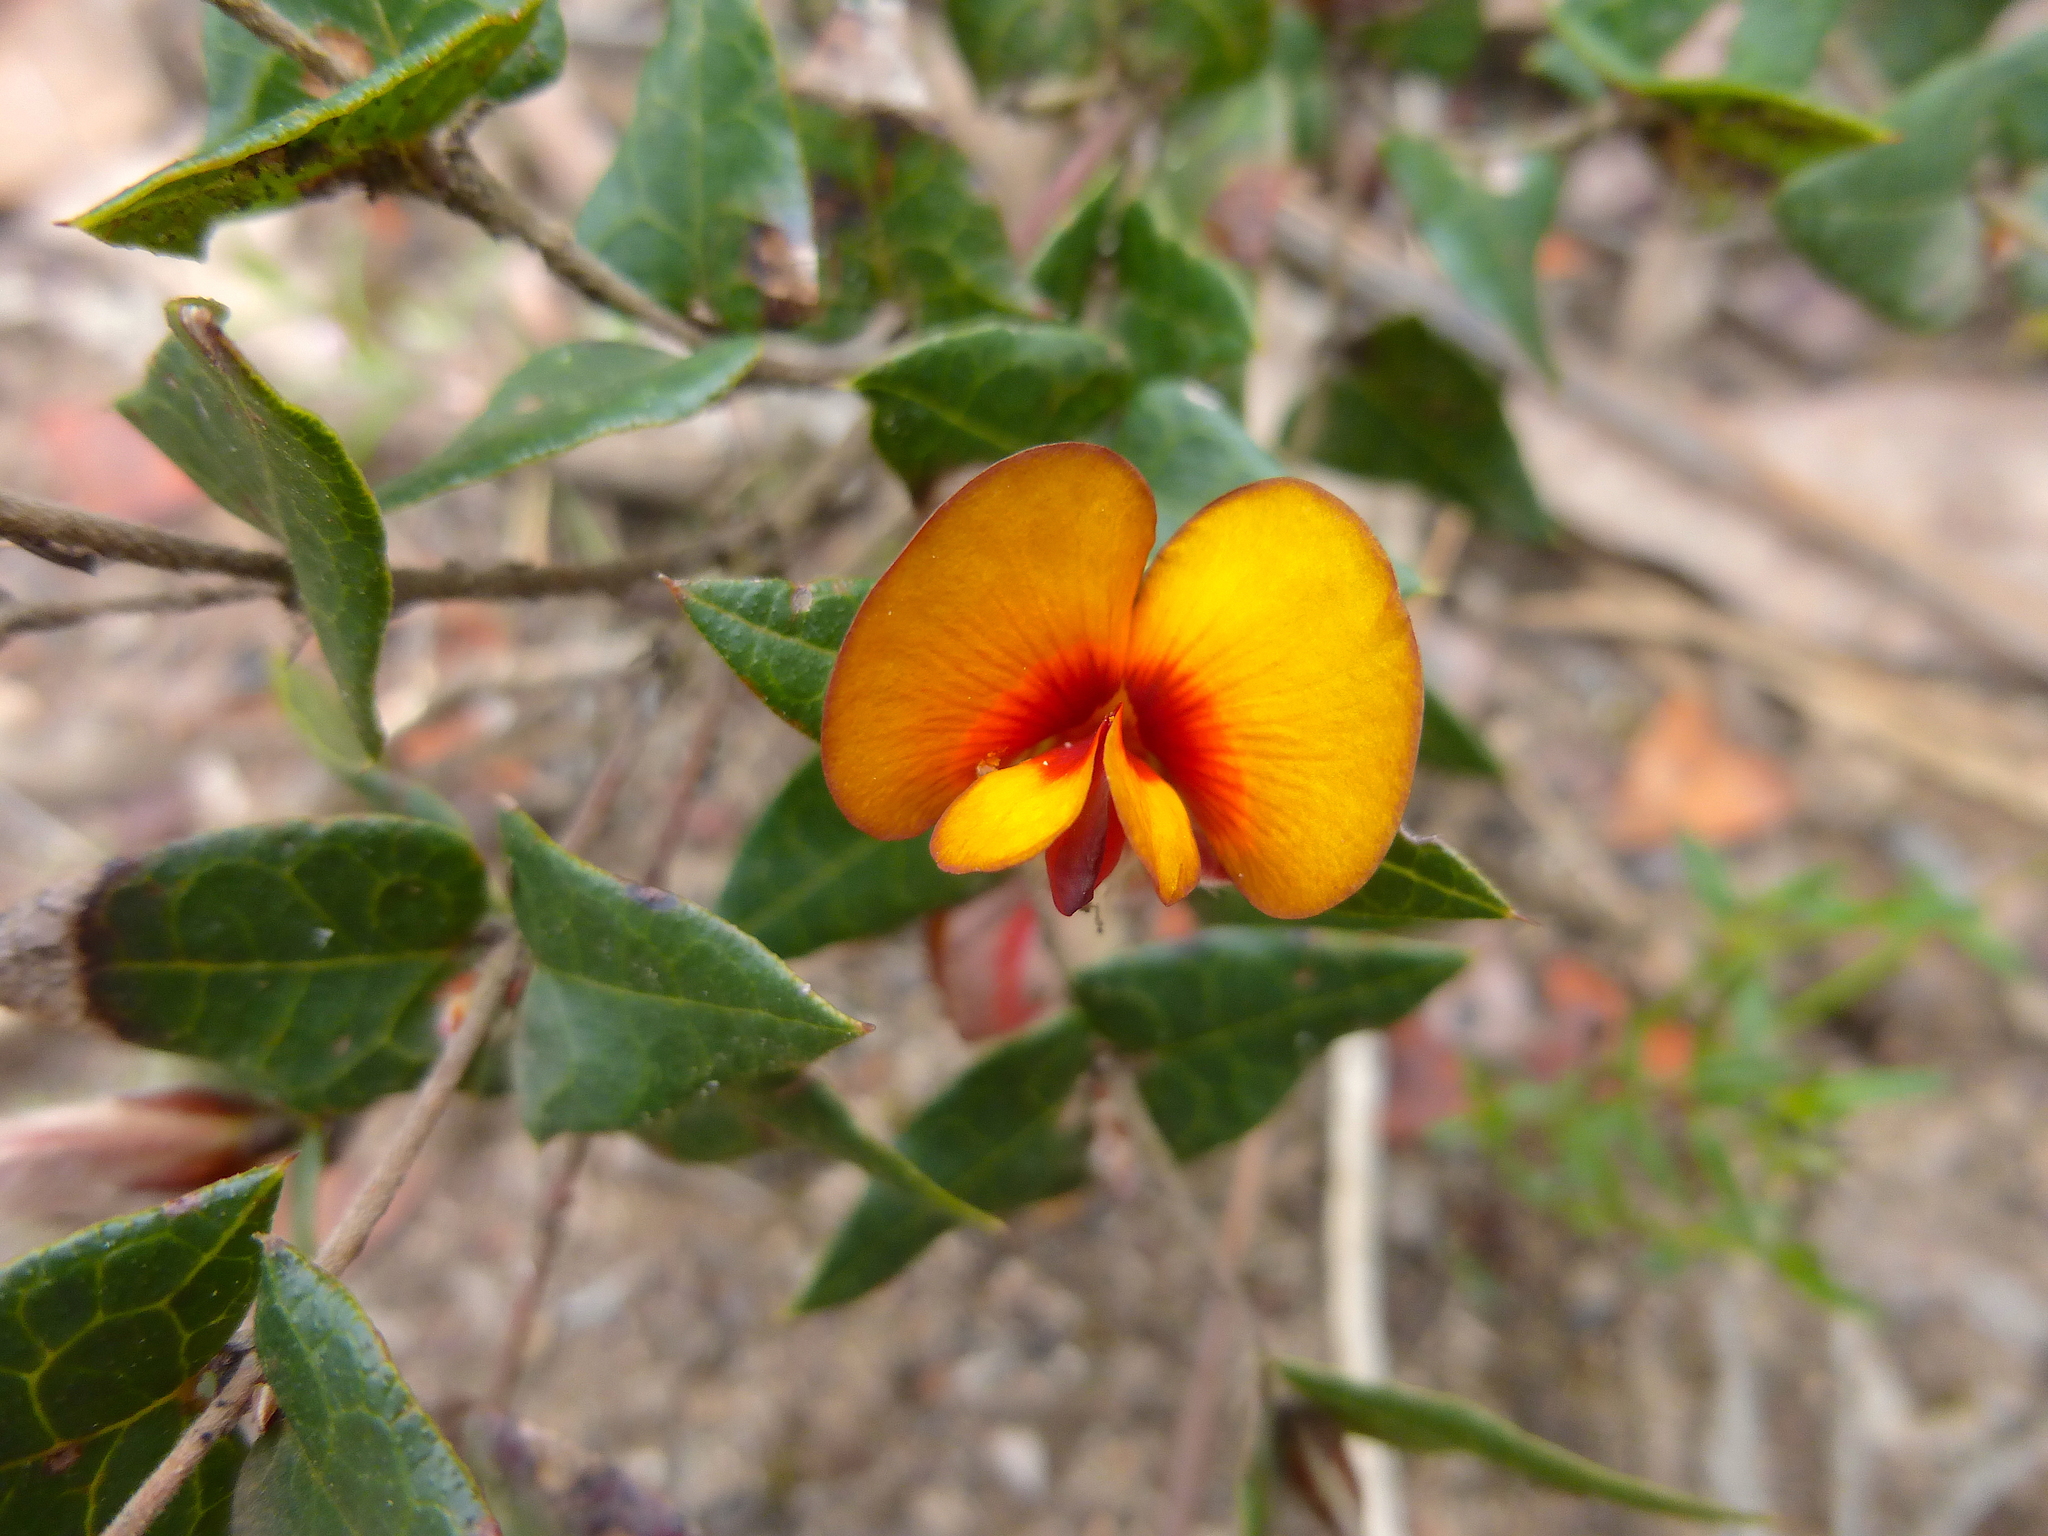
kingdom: Plantae
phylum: Tracheophyta
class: Magnoliopsida
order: Fabales
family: Fabaceae
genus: Platylobium
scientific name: Platylobium obtusangulum
